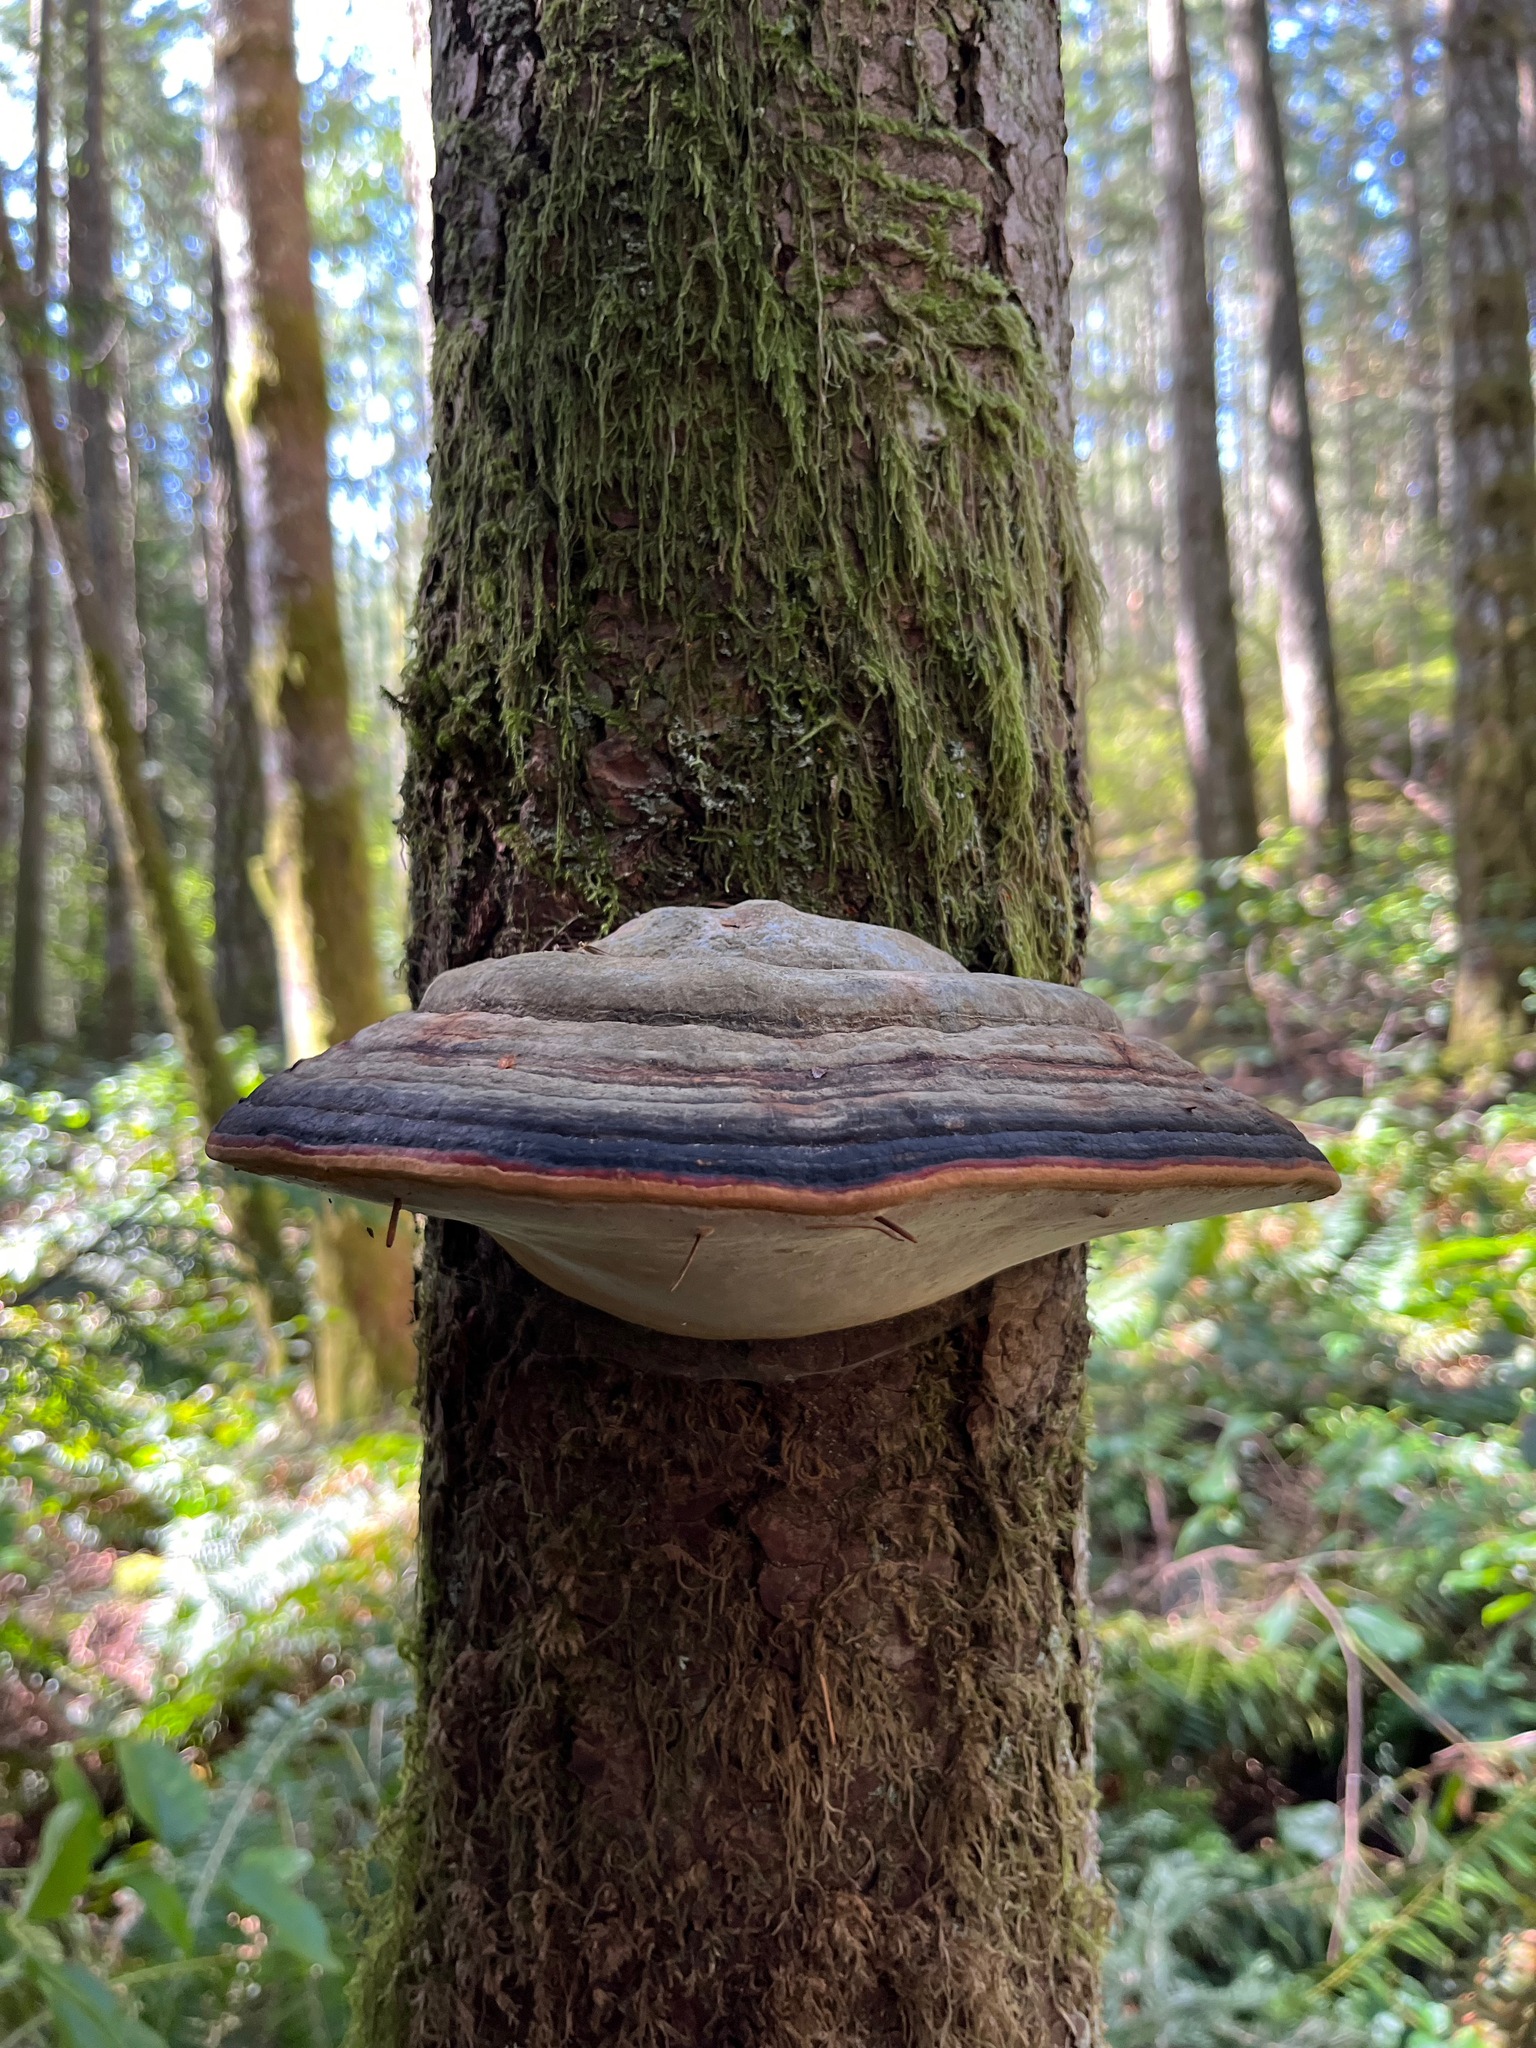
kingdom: Fungi
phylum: Basidiomycota
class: Agaricomycetes
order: Polyporales
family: Fomitopsidaceae
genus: Fomitopsis
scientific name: Fomitopsis mounceae
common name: Northern red belt
